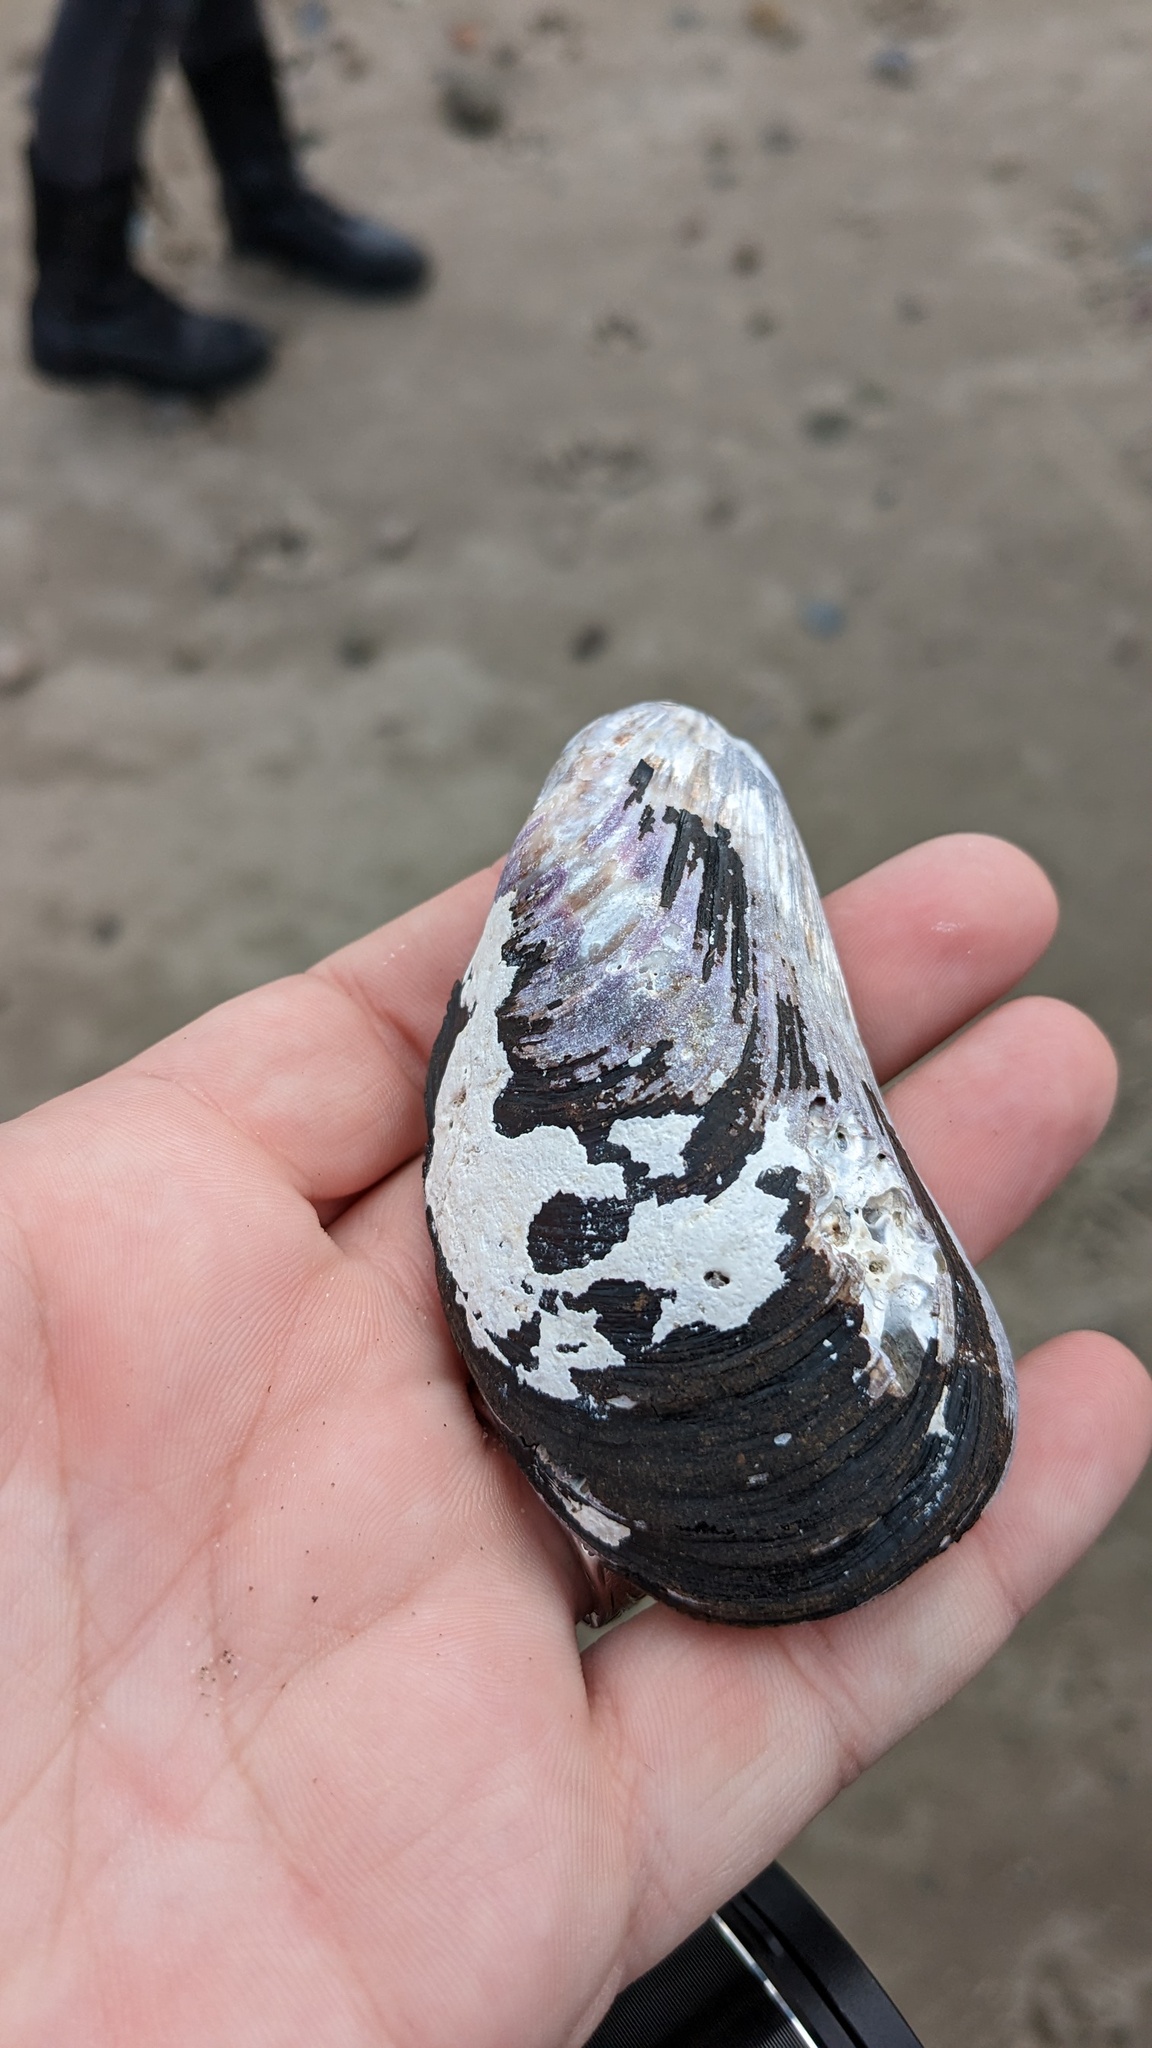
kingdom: Animalia
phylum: Mollusca
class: Bivalvia
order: Mytilida
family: Mytilidae
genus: Modiolus
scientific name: Modiolus modiolus
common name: Horse-mussel
